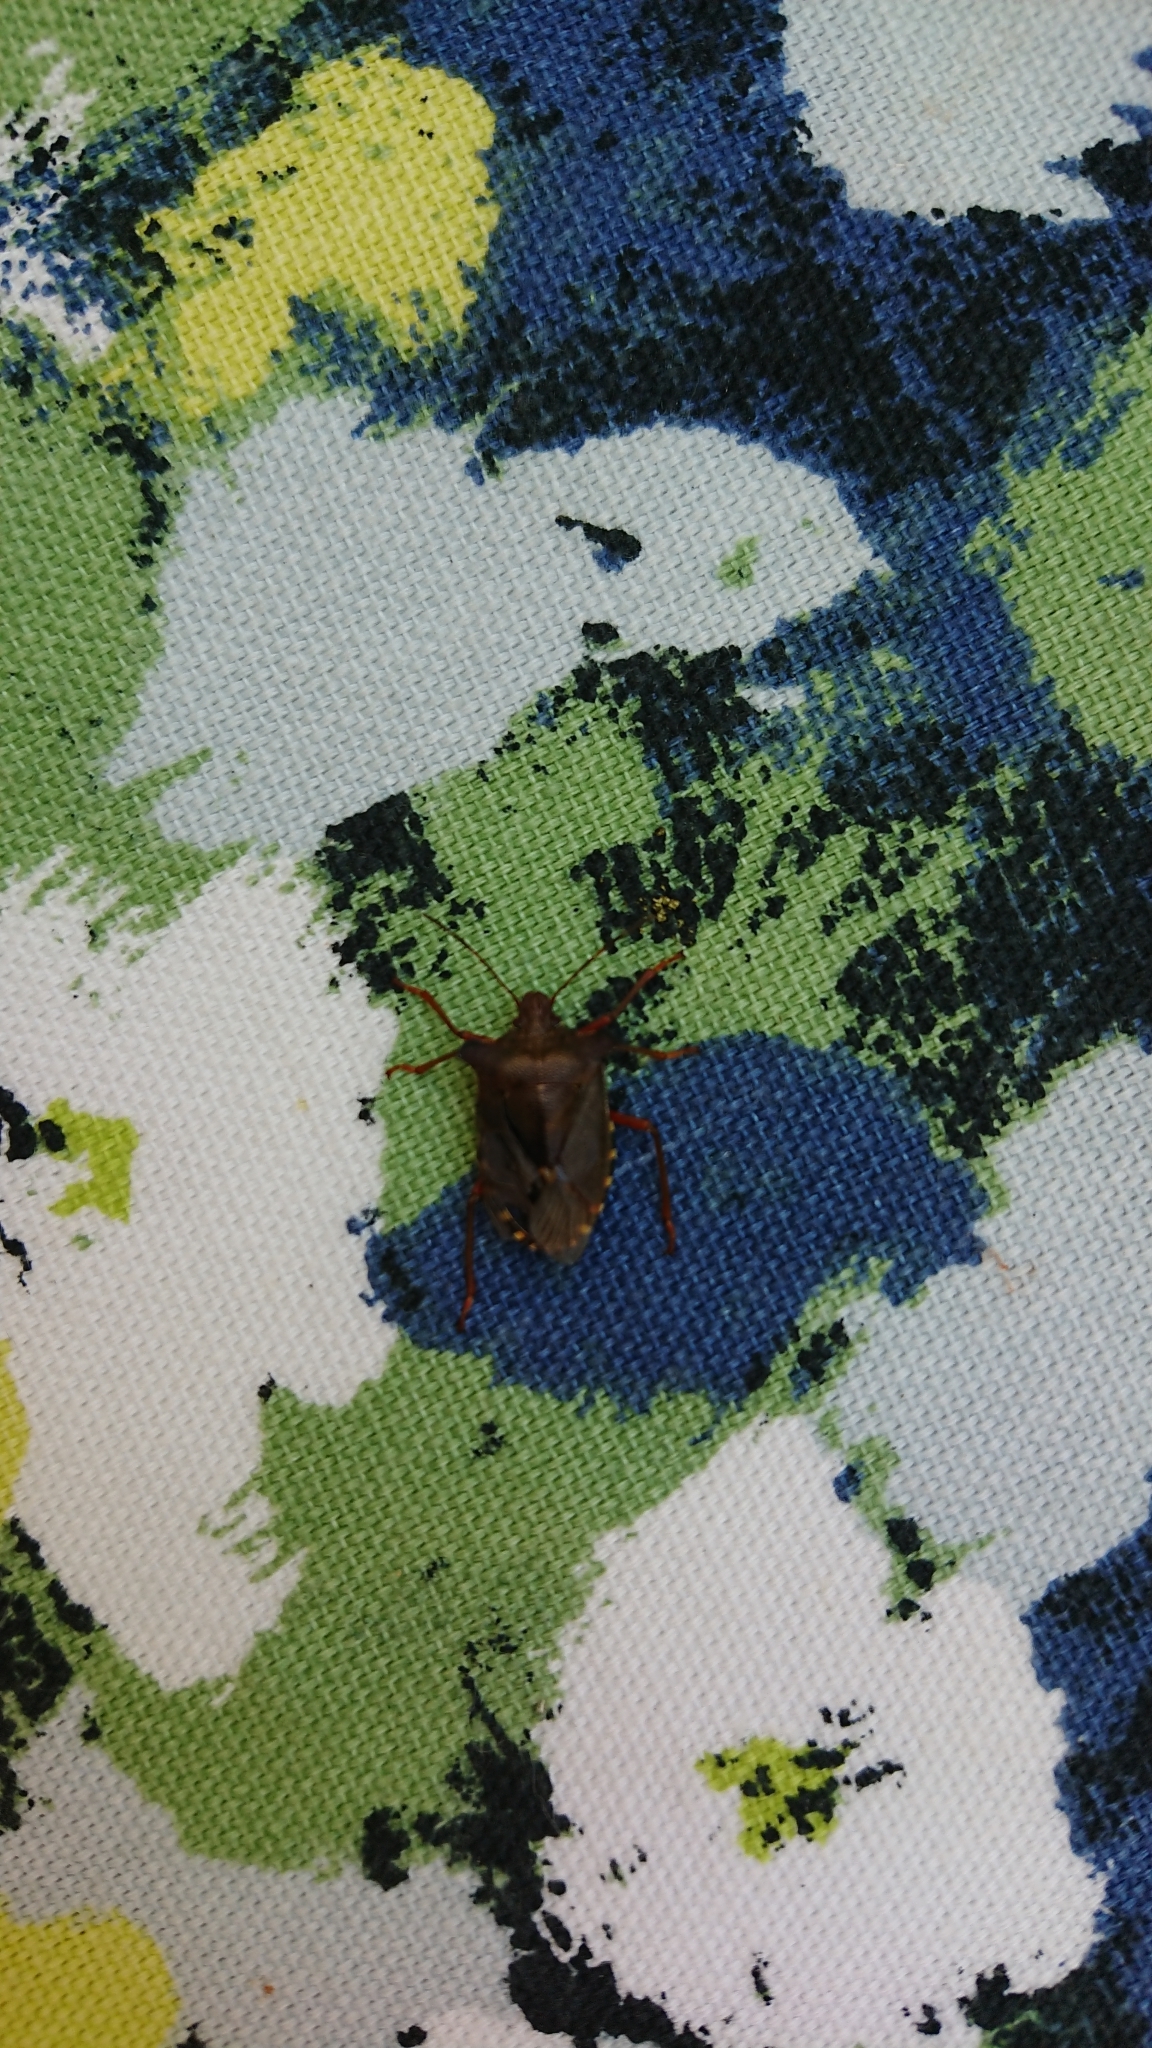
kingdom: Animalia
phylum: Arthropoda
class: Insecta
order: Hemiptera
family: Pentatomidae
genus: Pentatoma
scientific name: Pentatoma rufipes
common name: Forest bug
